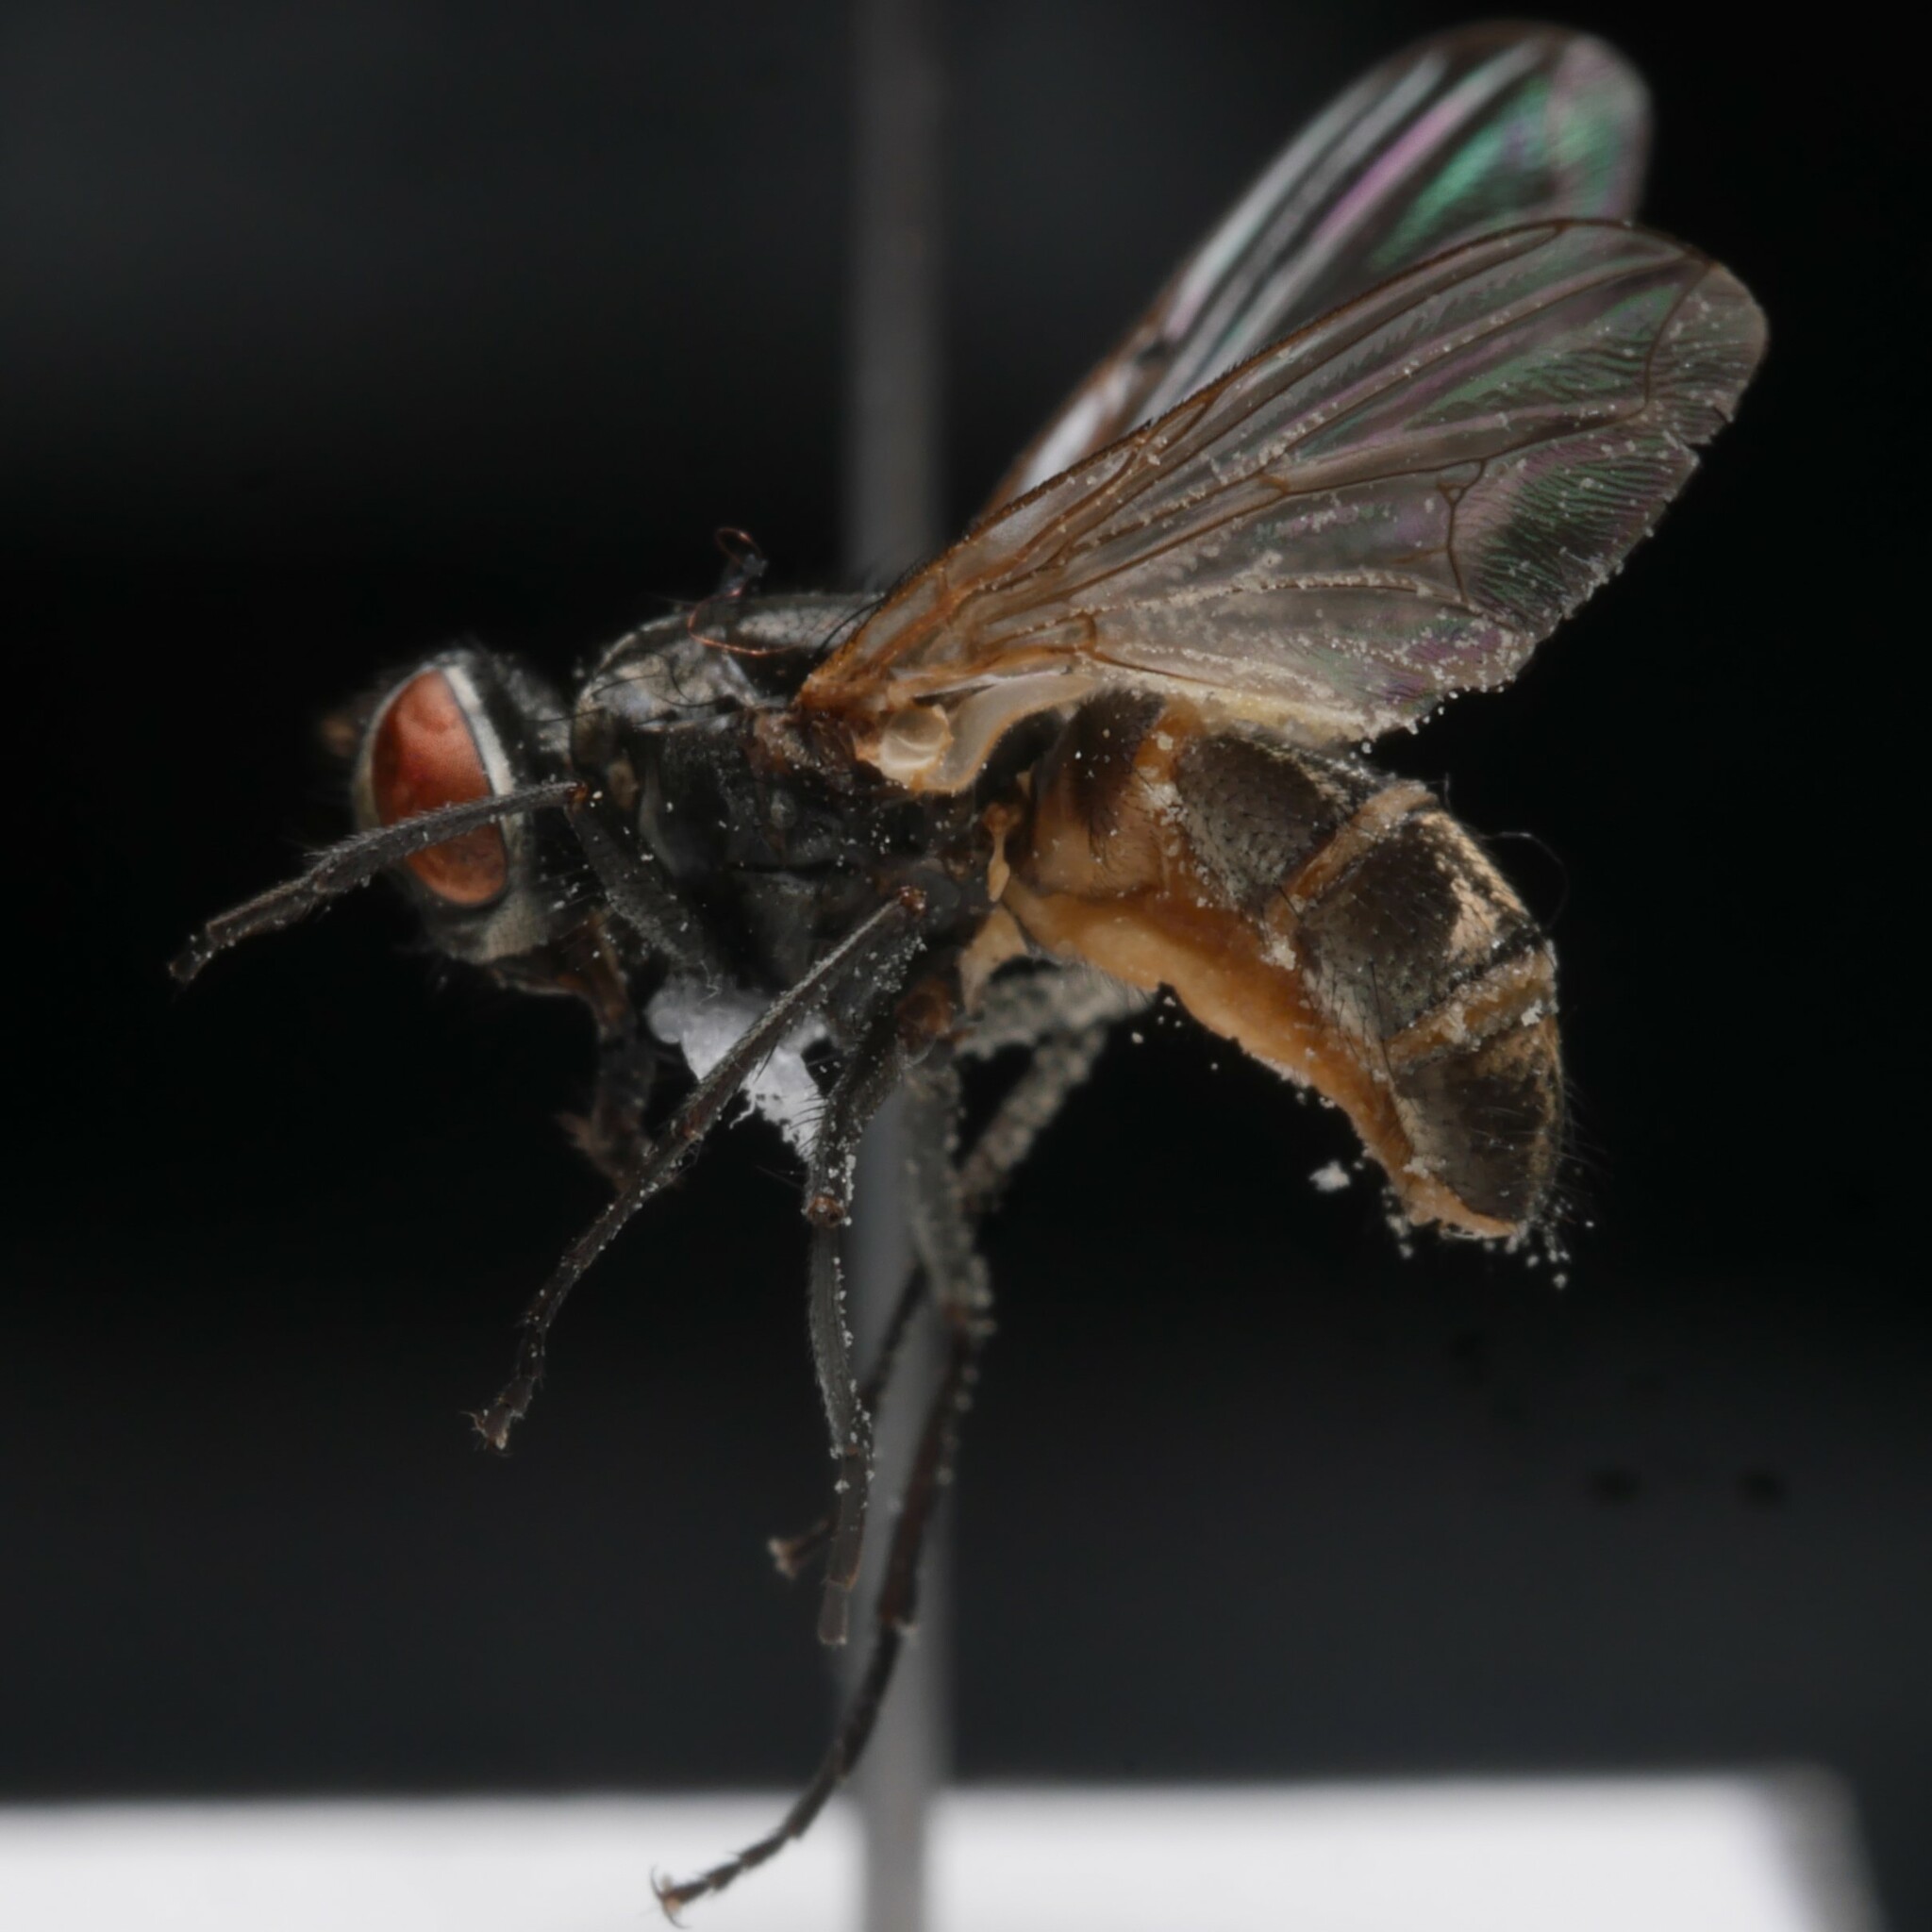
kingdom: Animalia
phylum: Arthropoda
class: Insecta
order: Diptera
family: Muscidae
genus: Musca
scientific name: Musca domestica
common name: House fly
